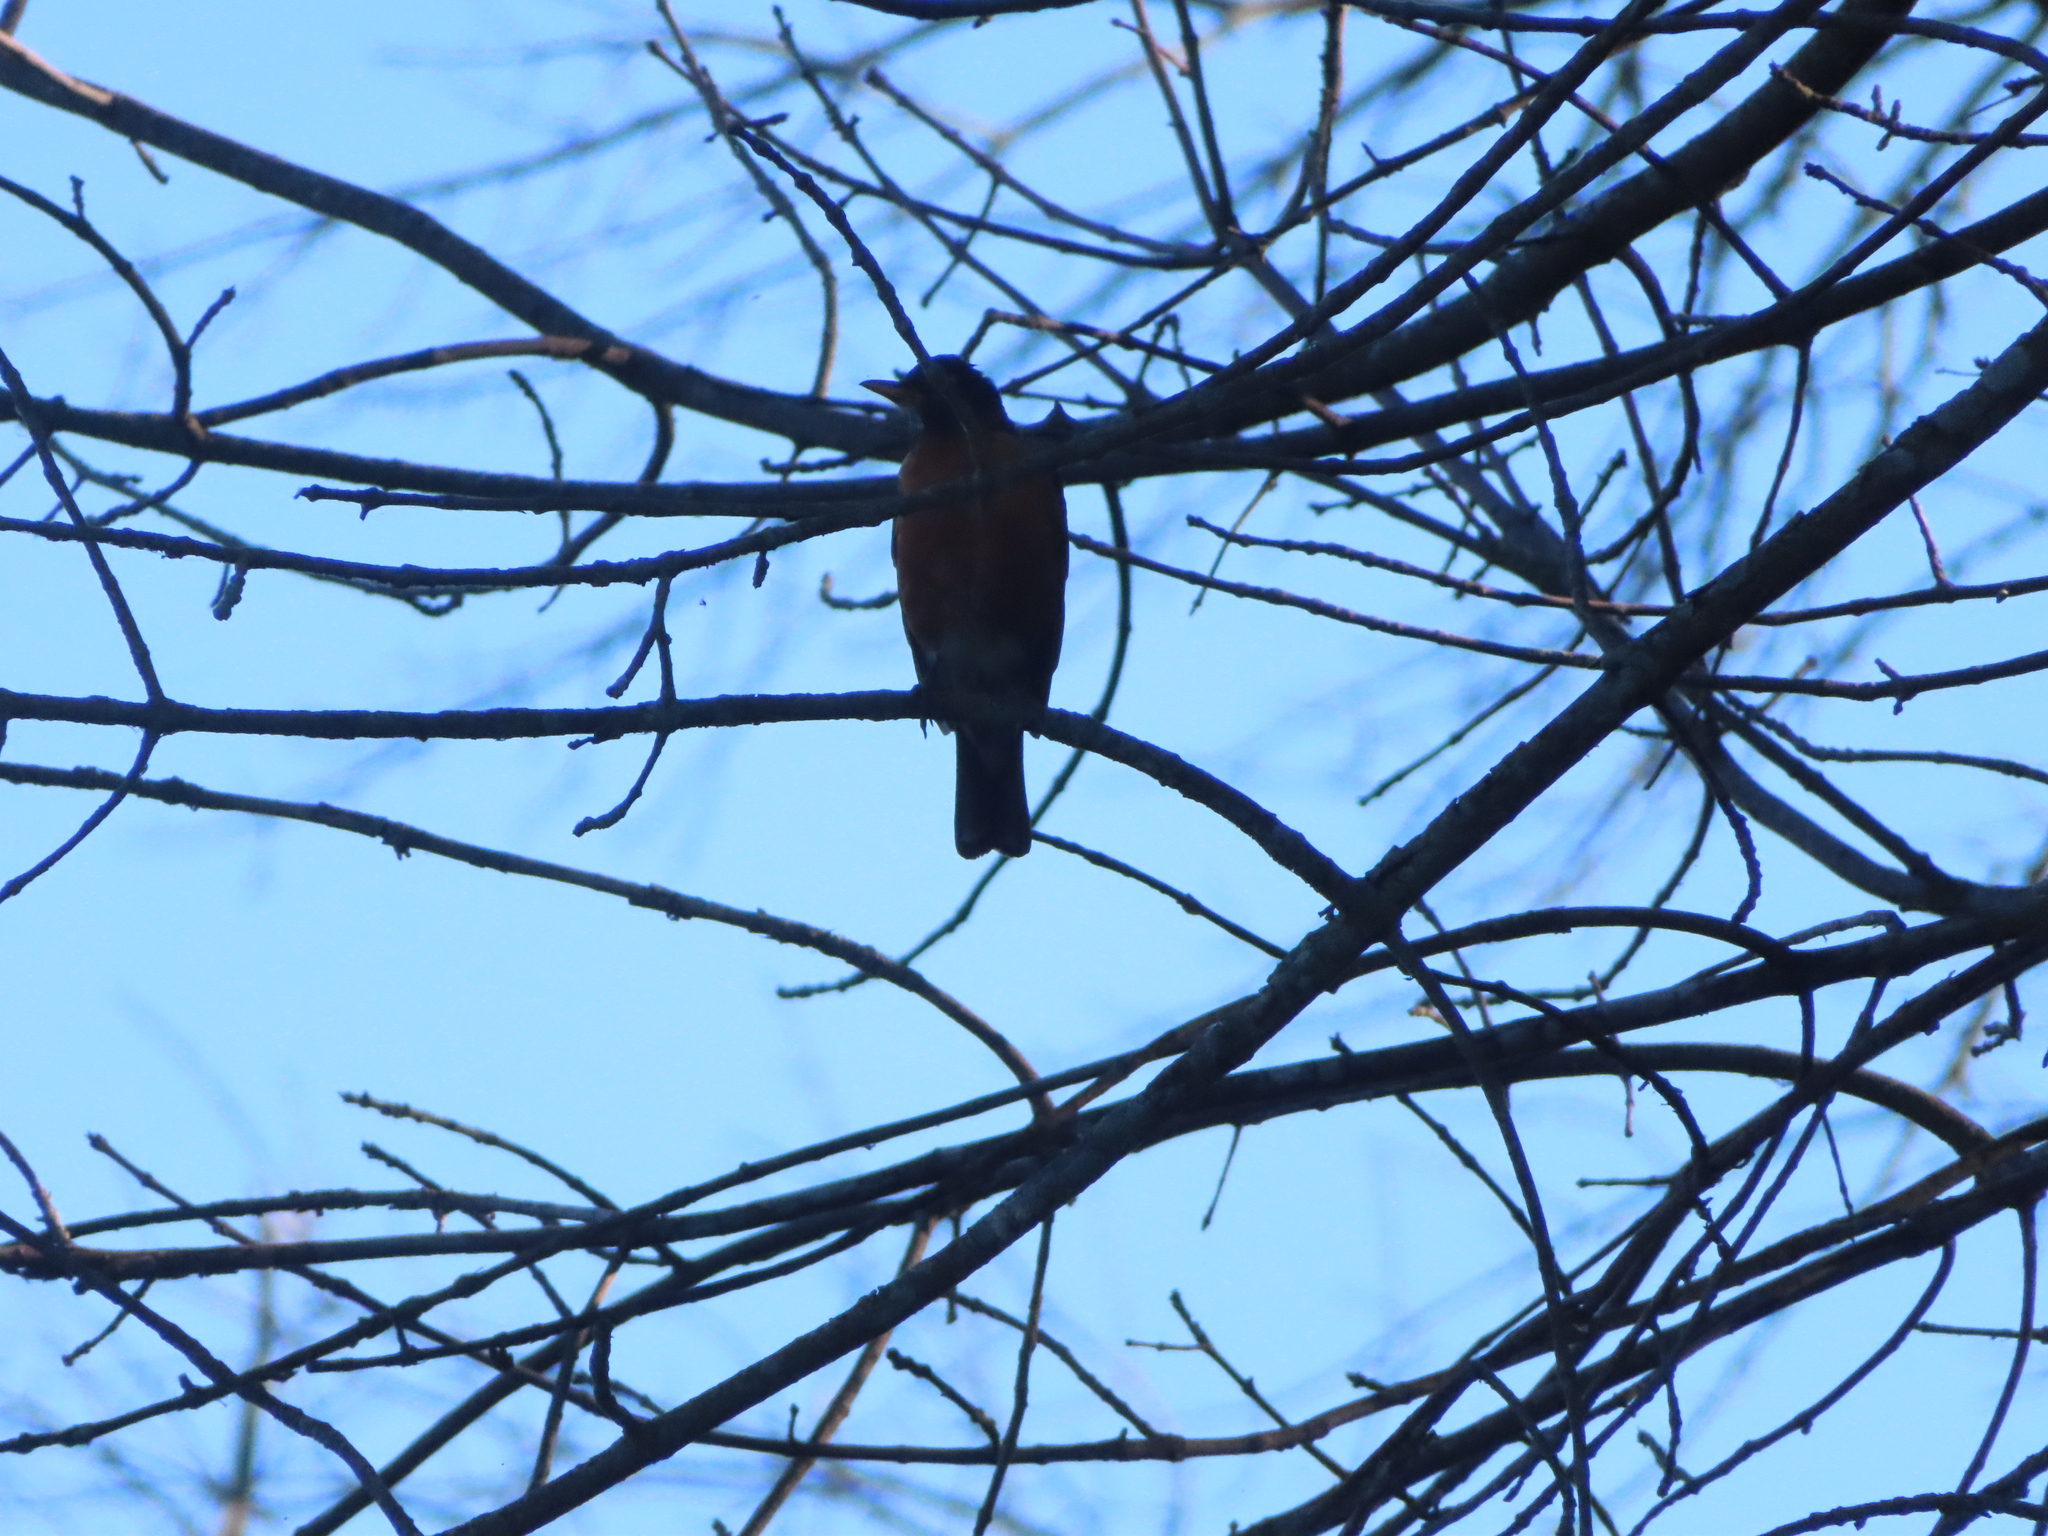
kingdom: Animalia
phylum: Chordata
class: Aves
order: Passeriformes
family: Turdidae
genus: Turdus
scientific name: Turdus migratorius
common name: American robin
